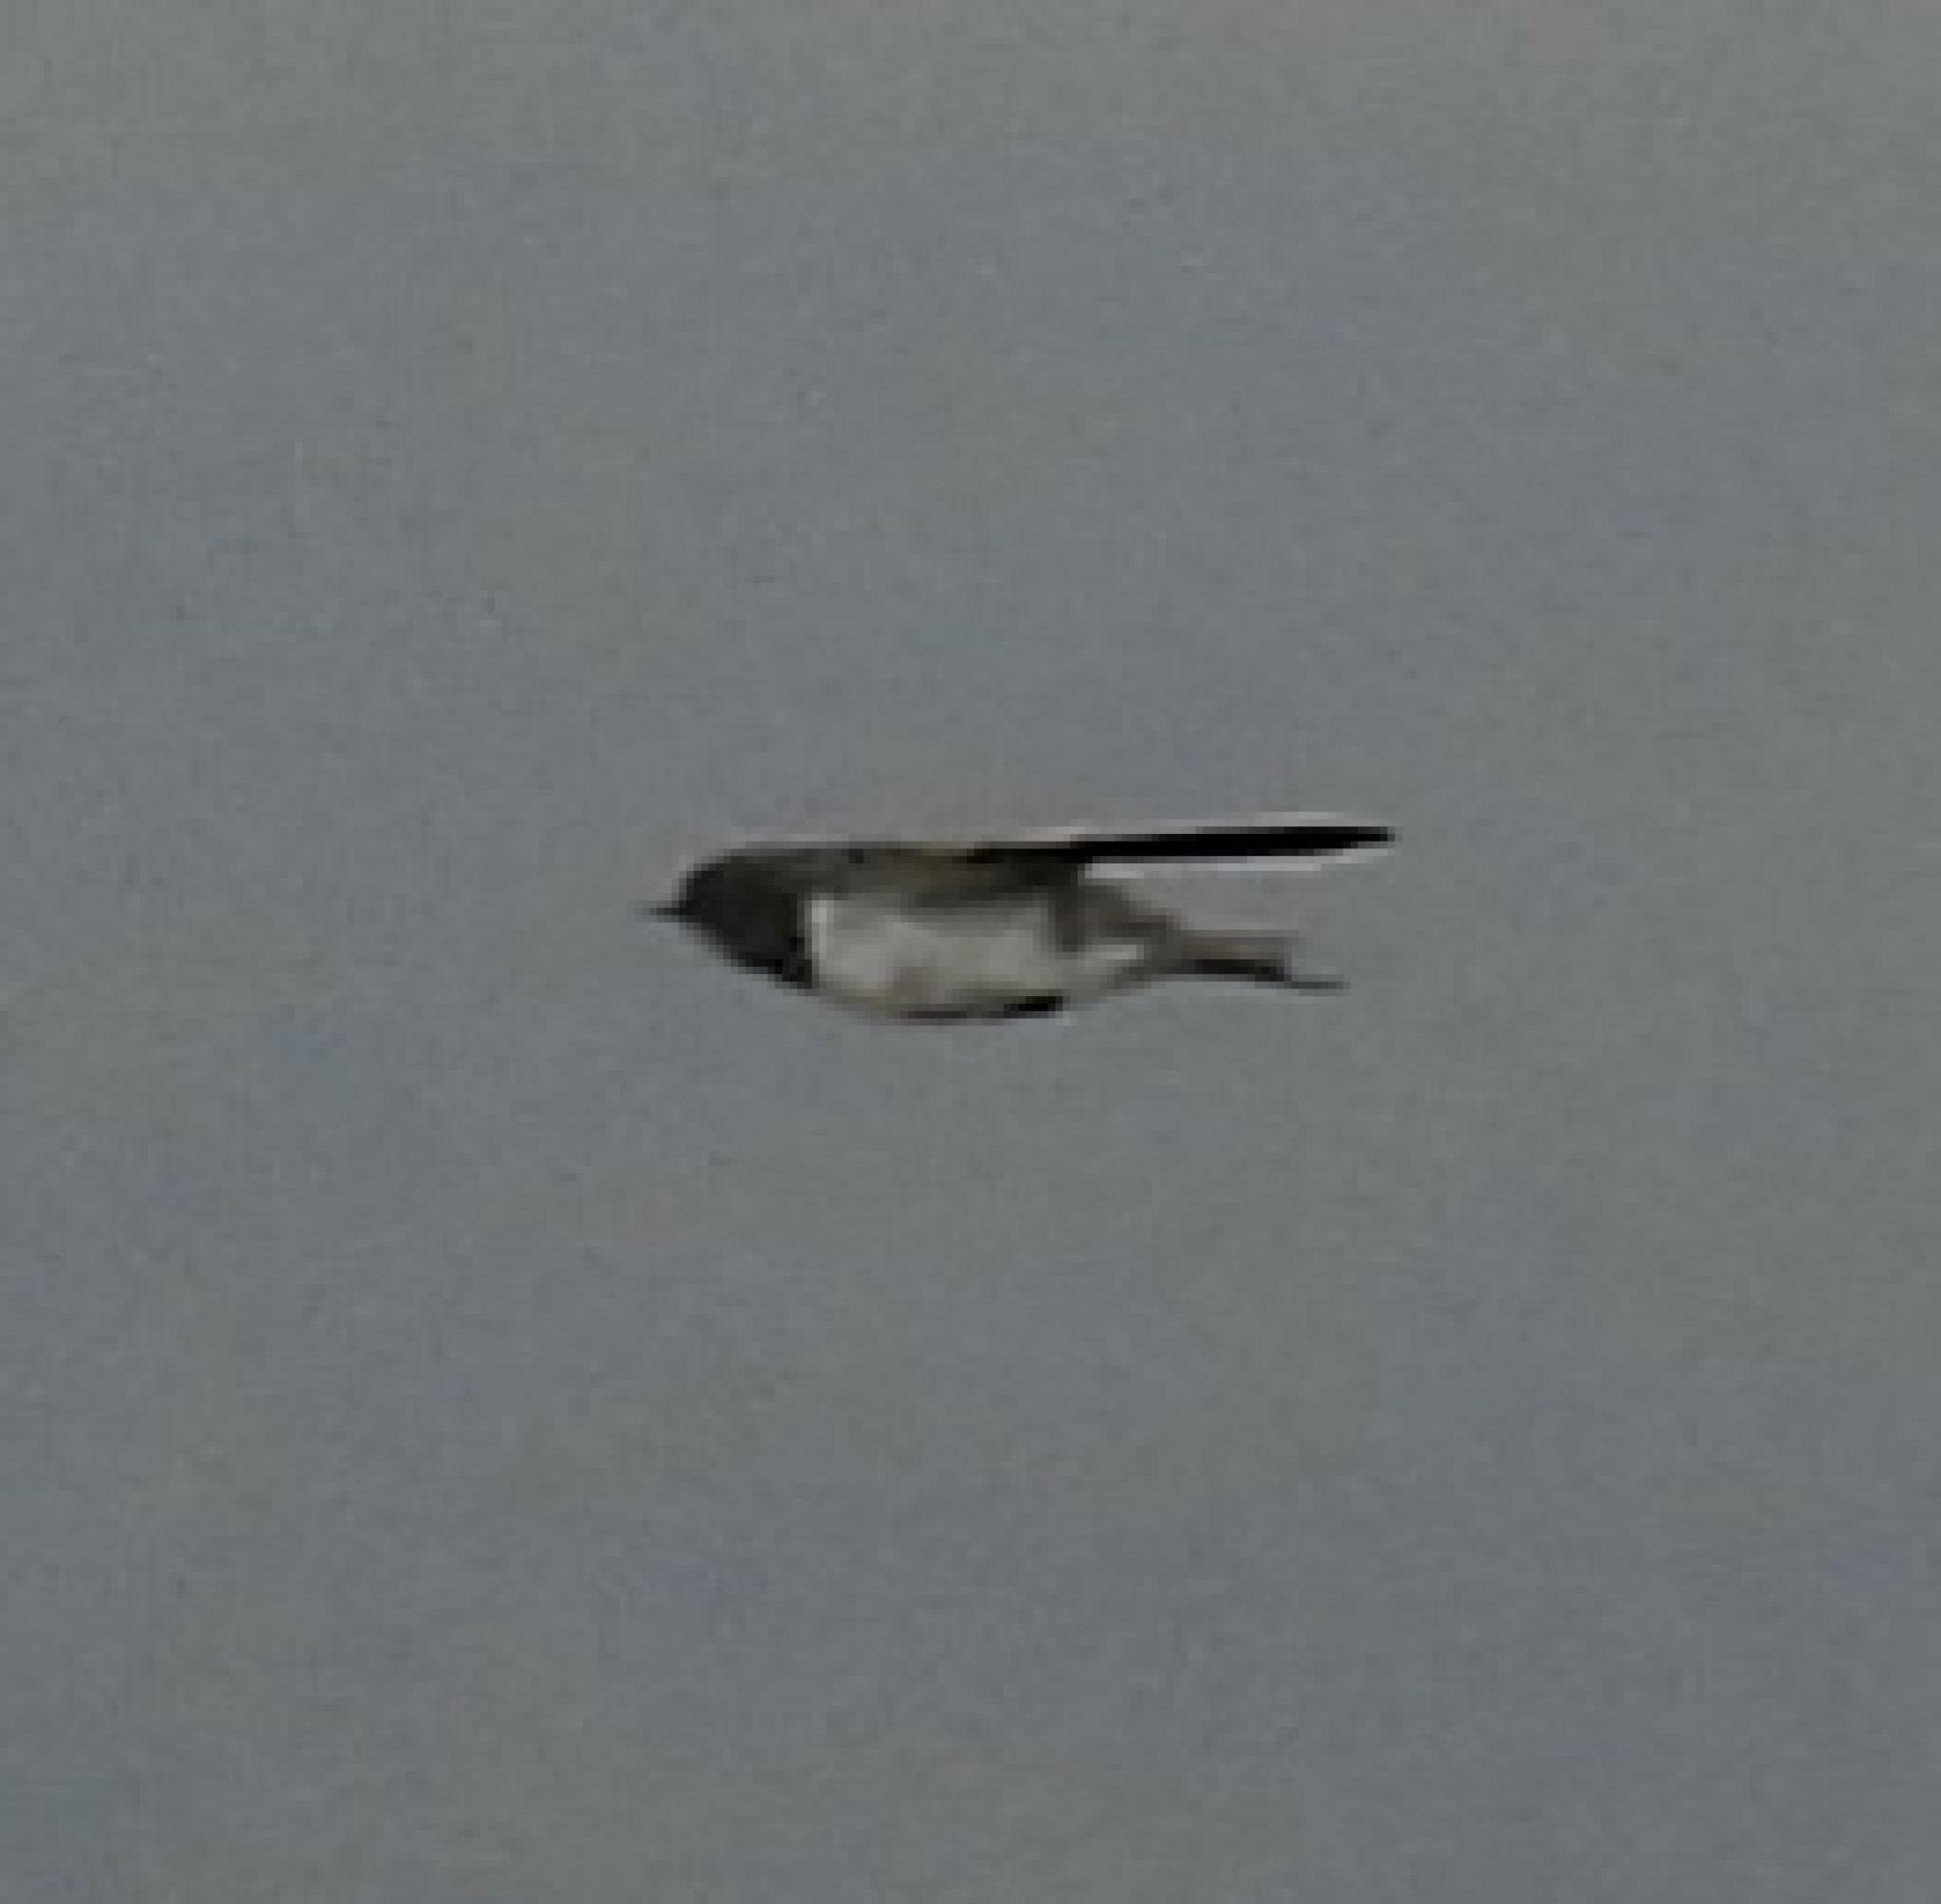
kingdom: Animalia
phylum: Chordata
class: Aves
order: Passeriformes
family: Hirundinidae
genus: Hirundo
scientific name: Hirundo rustica
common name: Barn swallow
